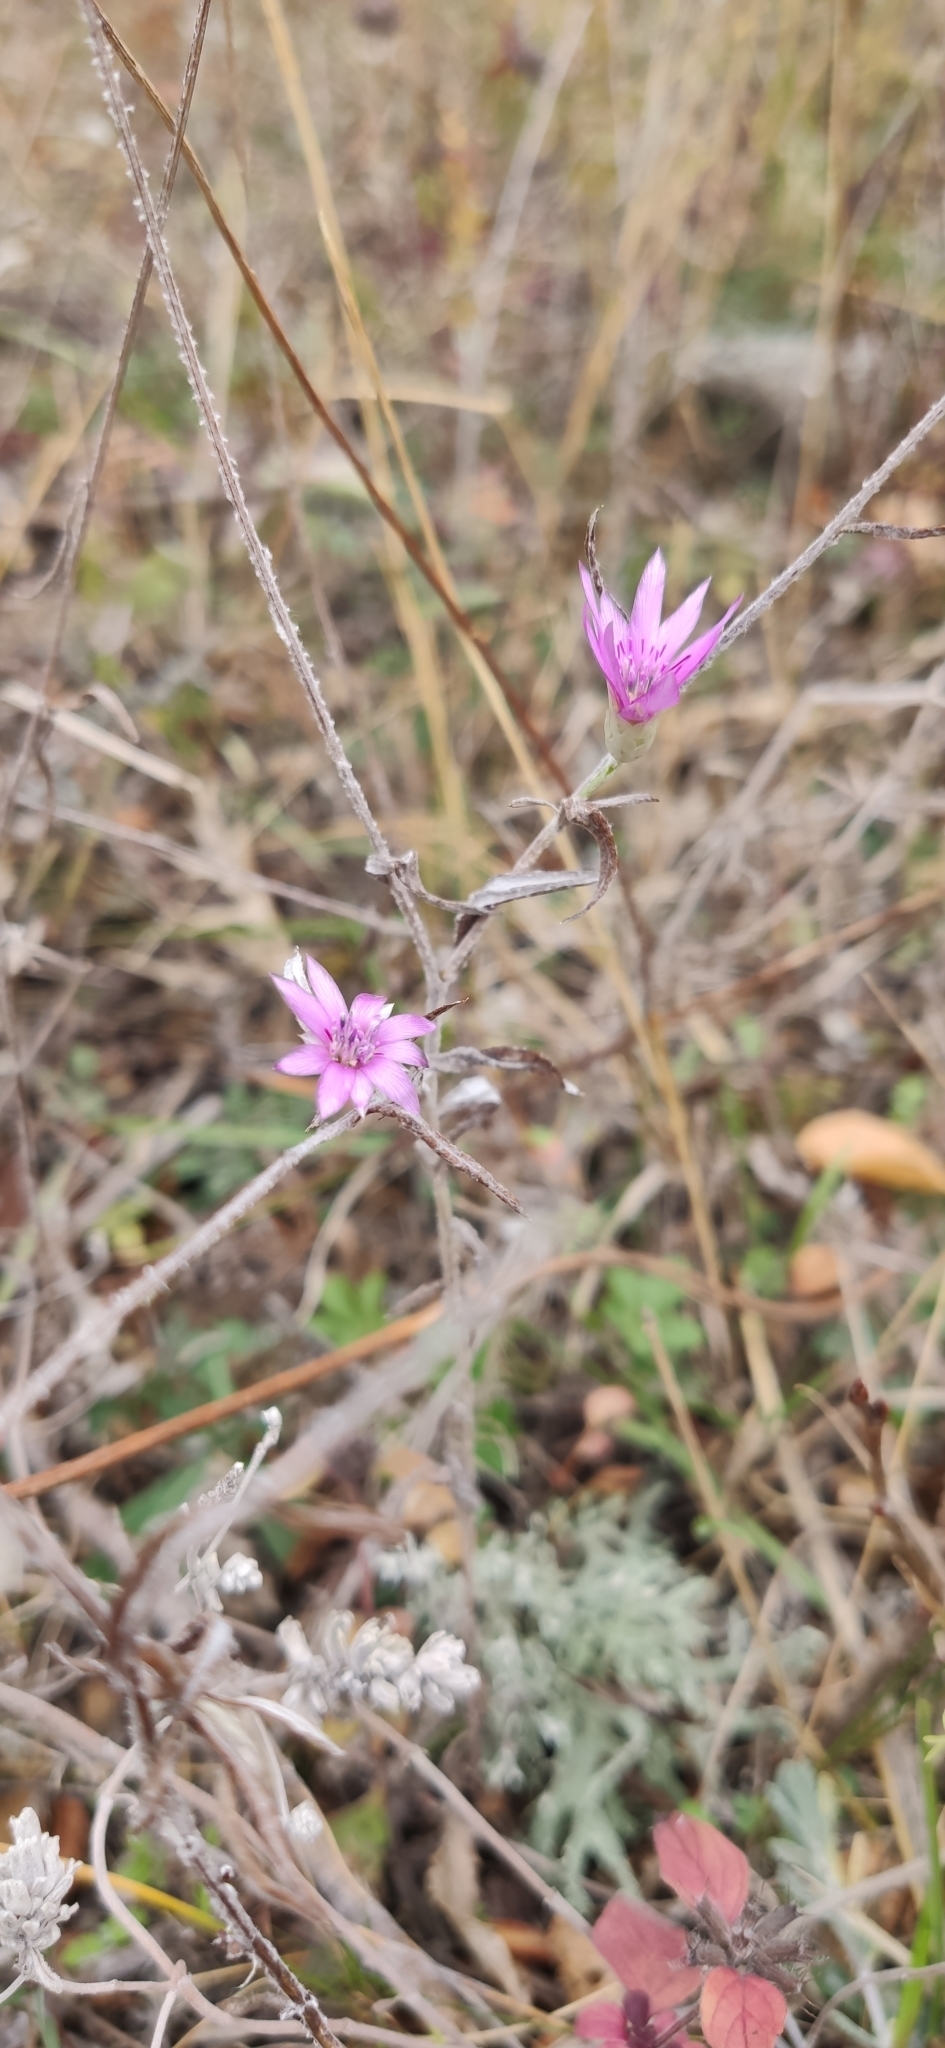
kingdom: Plantae
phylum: Tracheophyta
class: Magnoliopsida
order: Asterales
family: Asteraceae
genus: Xeranthemum
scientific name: Xeranthemum annuum
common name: Immortelle
